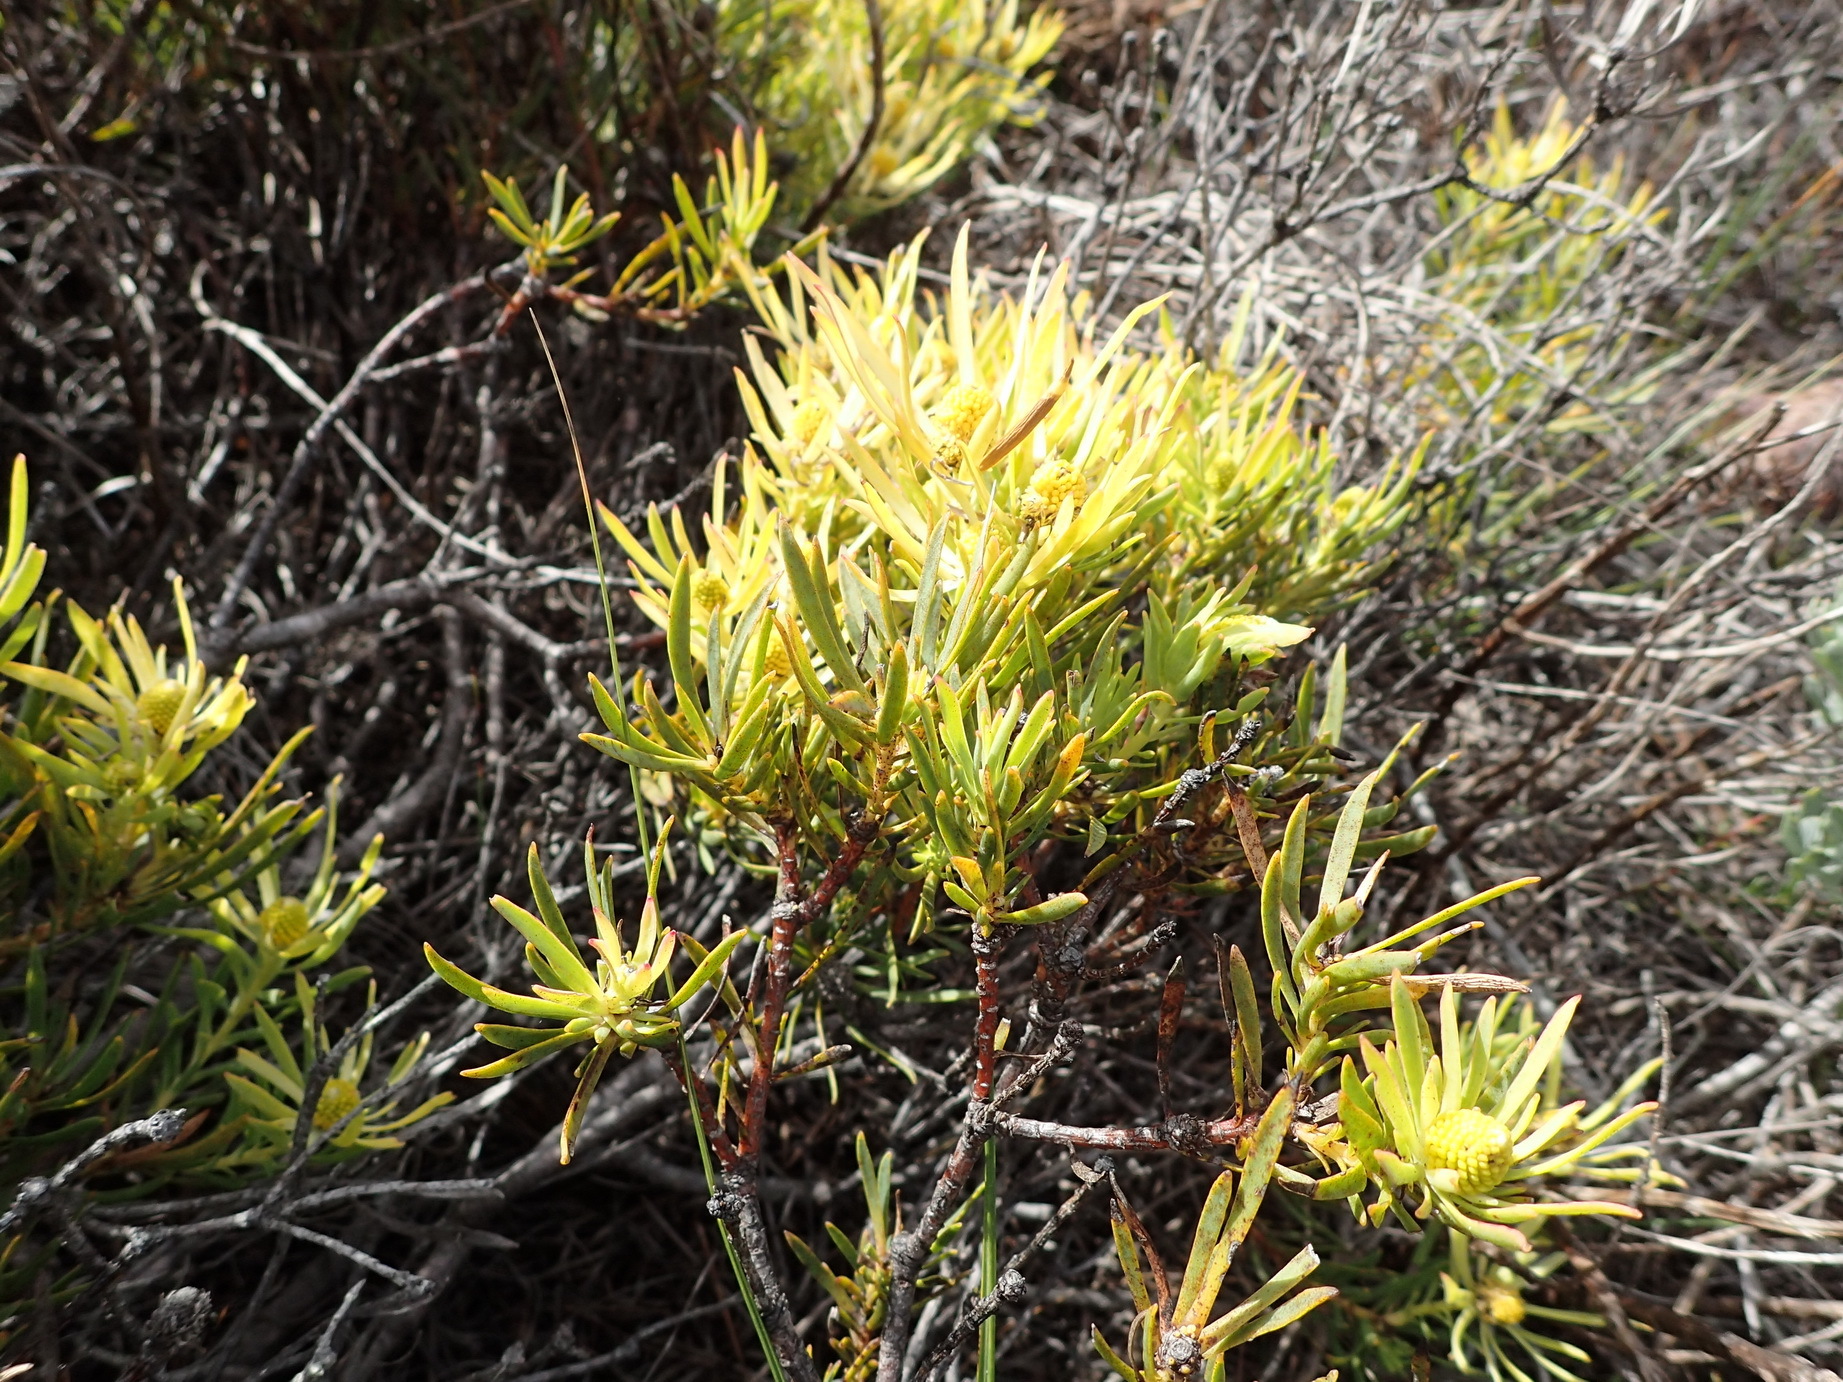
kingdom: Plantae
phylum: Tracheophyta
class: Magnoliopsida
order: Proteales
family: Proteaceae
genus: Leucadendron
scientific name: Leucadendron salignum
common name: Common sunshine conebush
